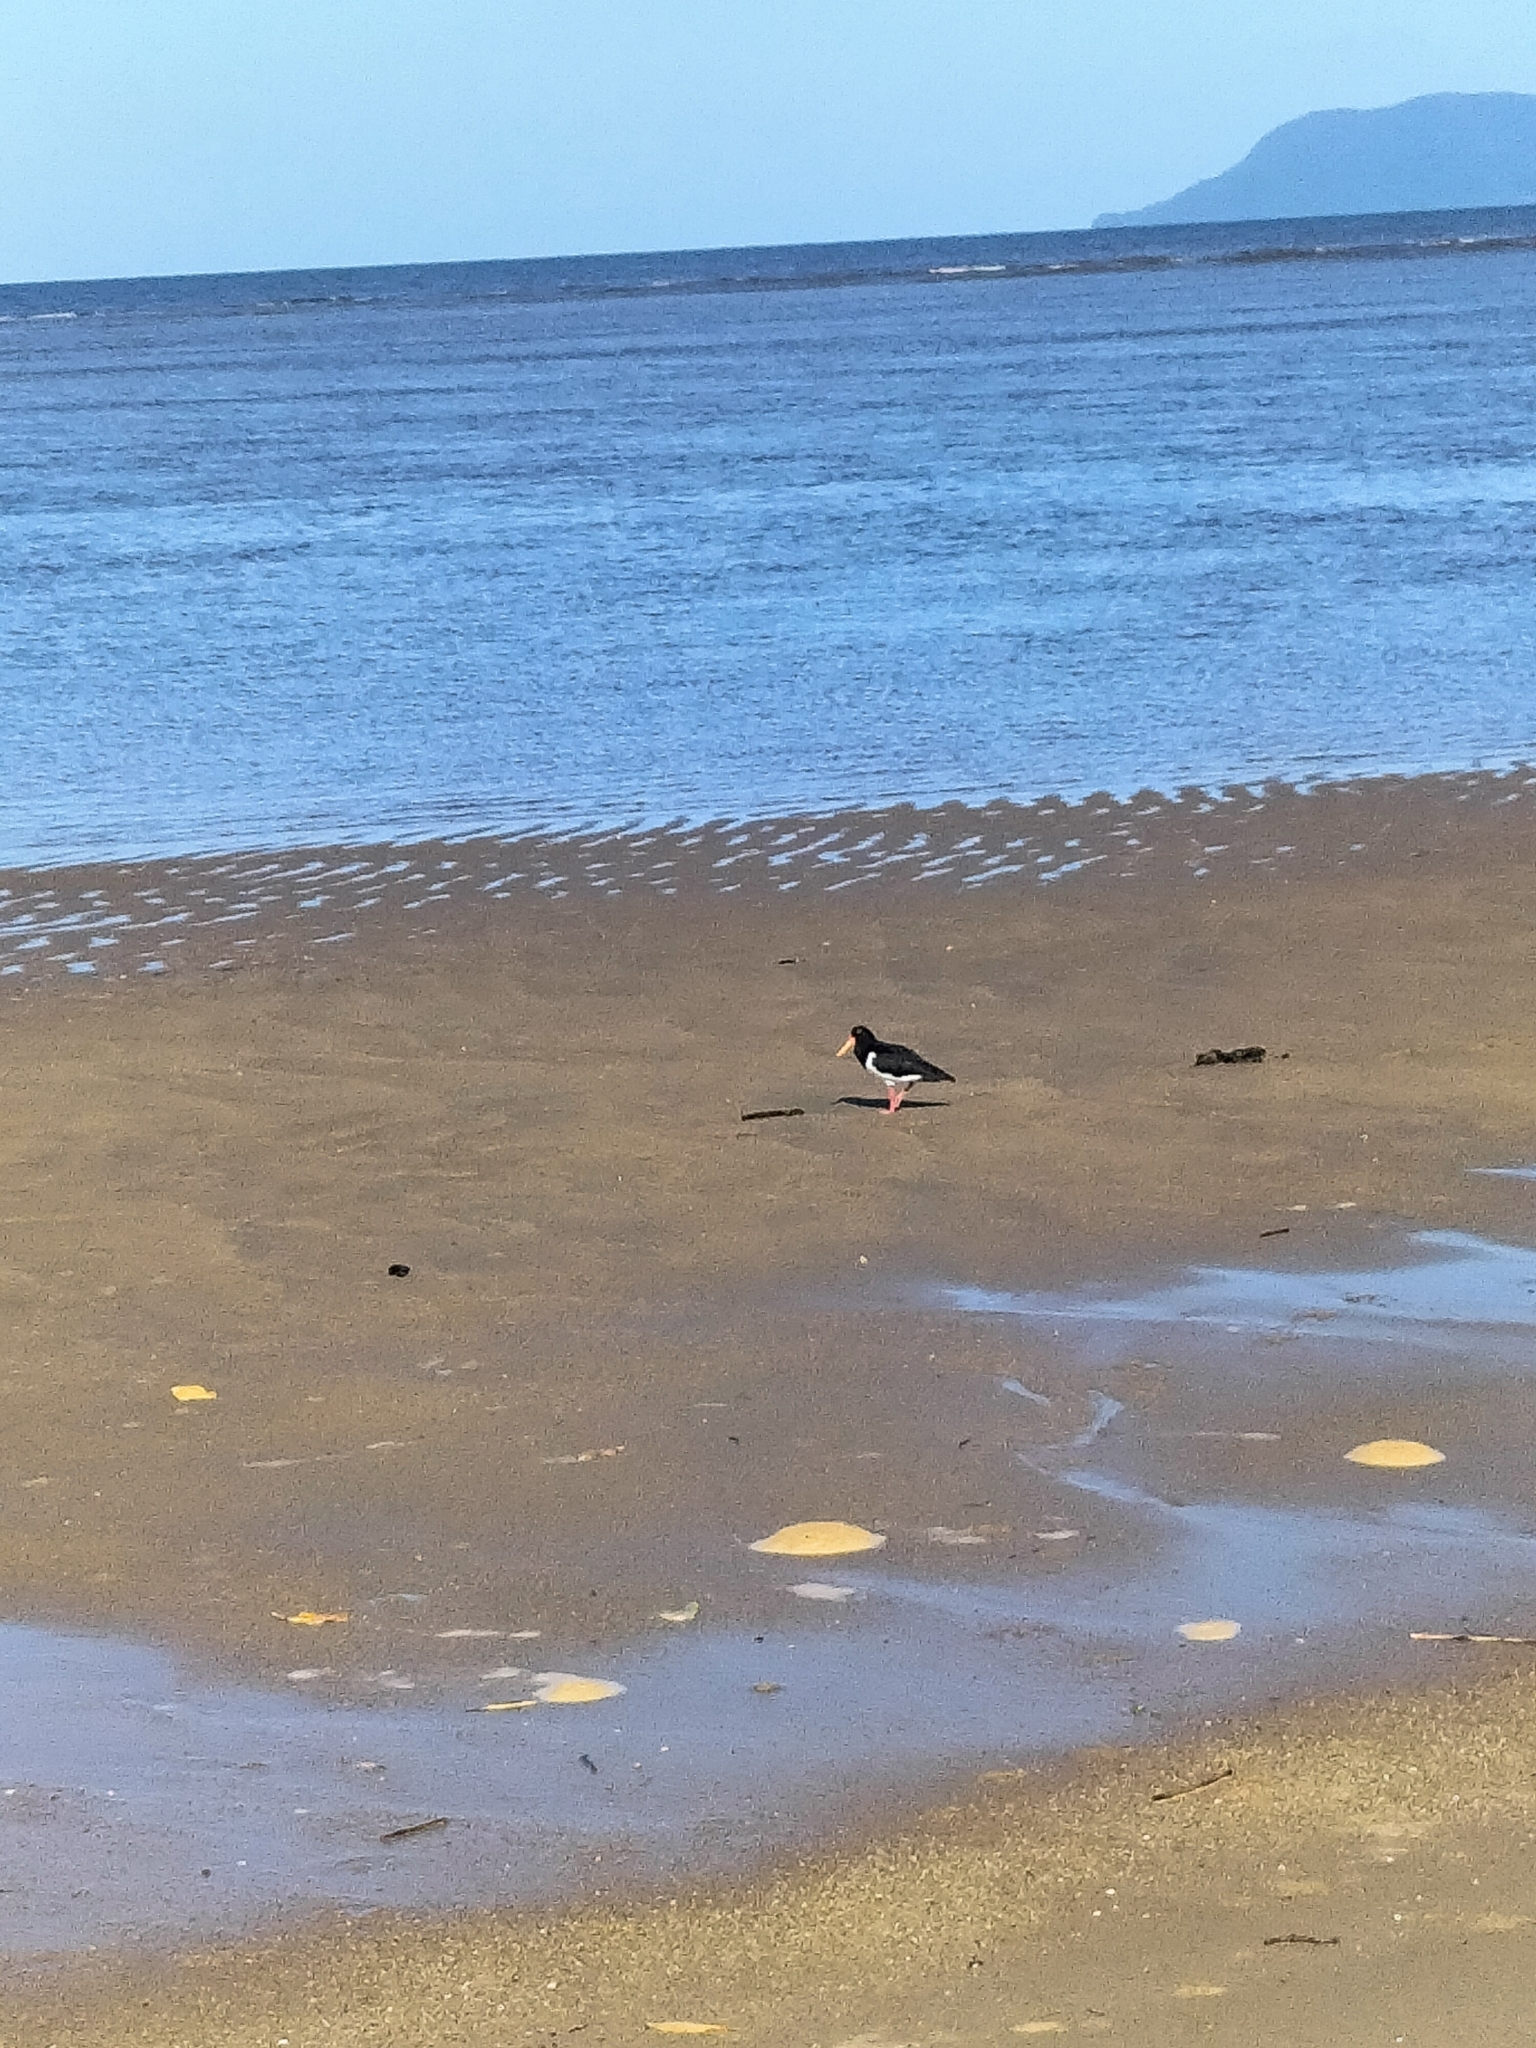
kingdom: Animalia
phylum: Chordata
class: Aves
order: Charadriiformes
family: Haematopodidae
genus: Haematopus
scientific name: Haematopus longirostris
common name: Pied oystercatcher
